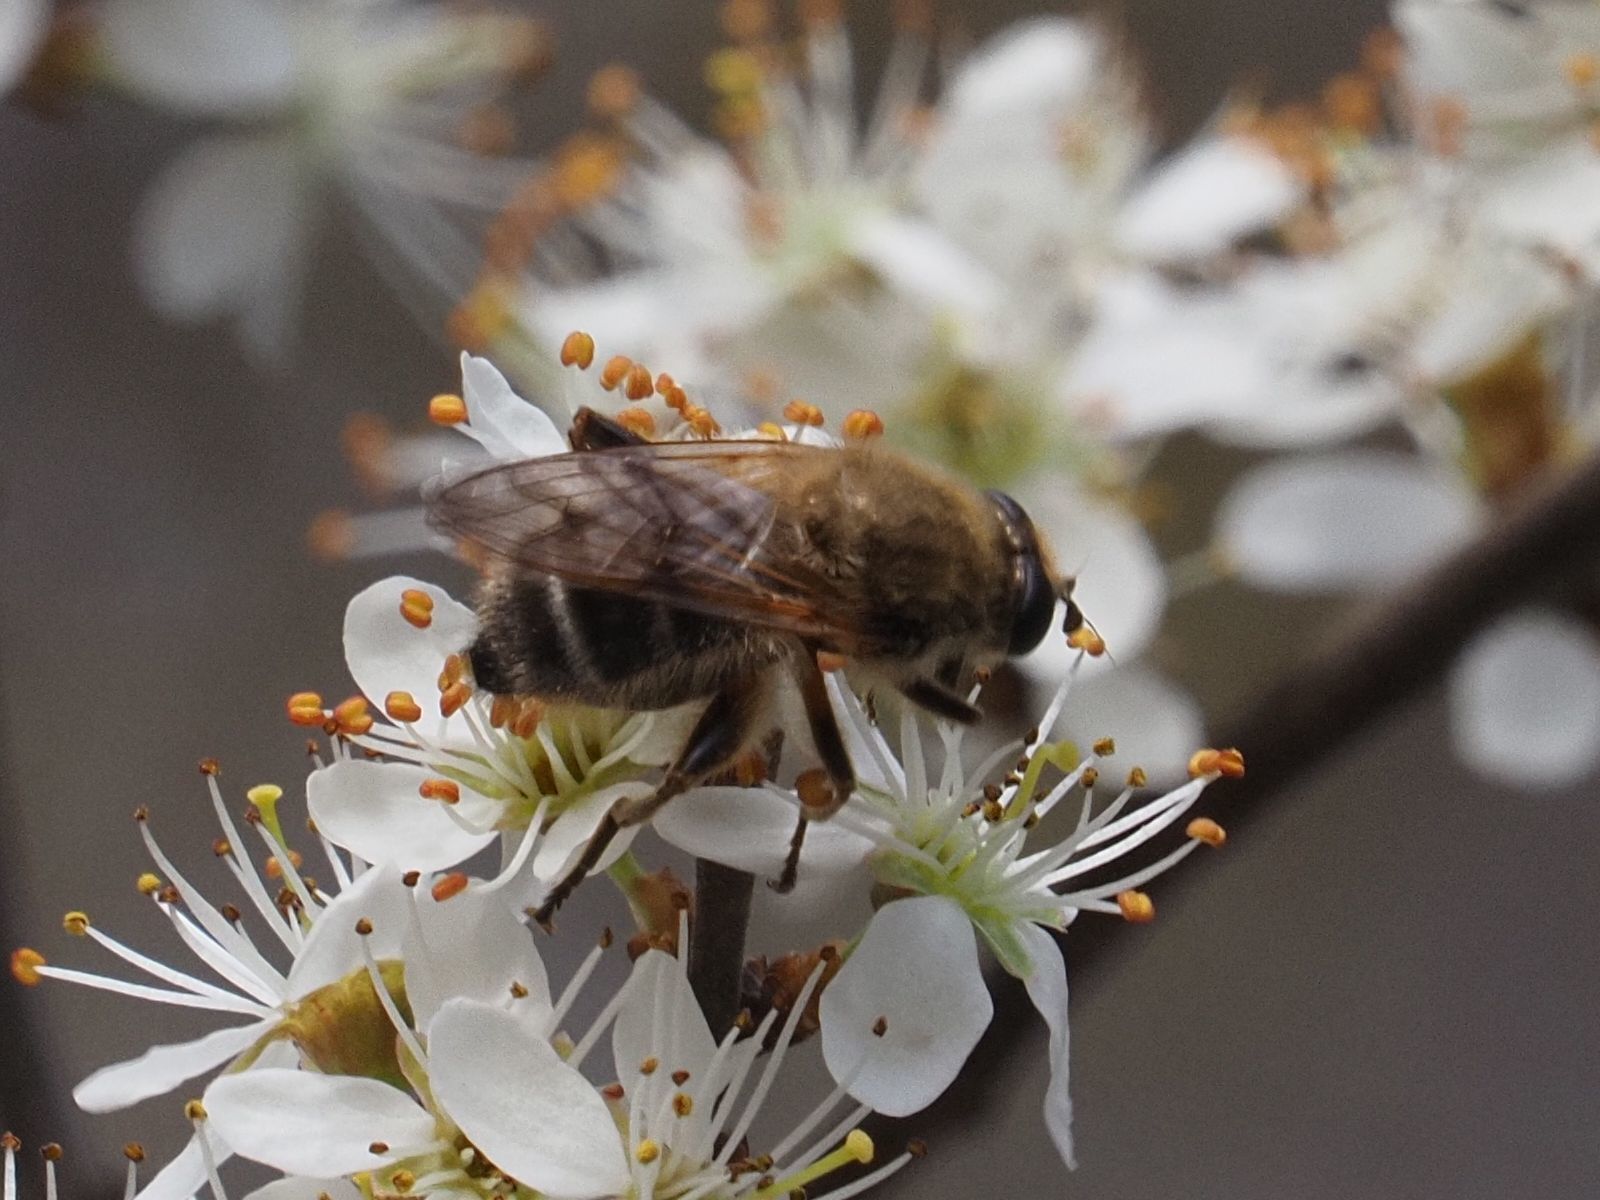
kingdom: Animalia
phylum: Arthropoda
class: Insecta
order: Diptera
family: Syrphidae
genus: Brachypalpus
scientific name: Brachypalpus valgus
